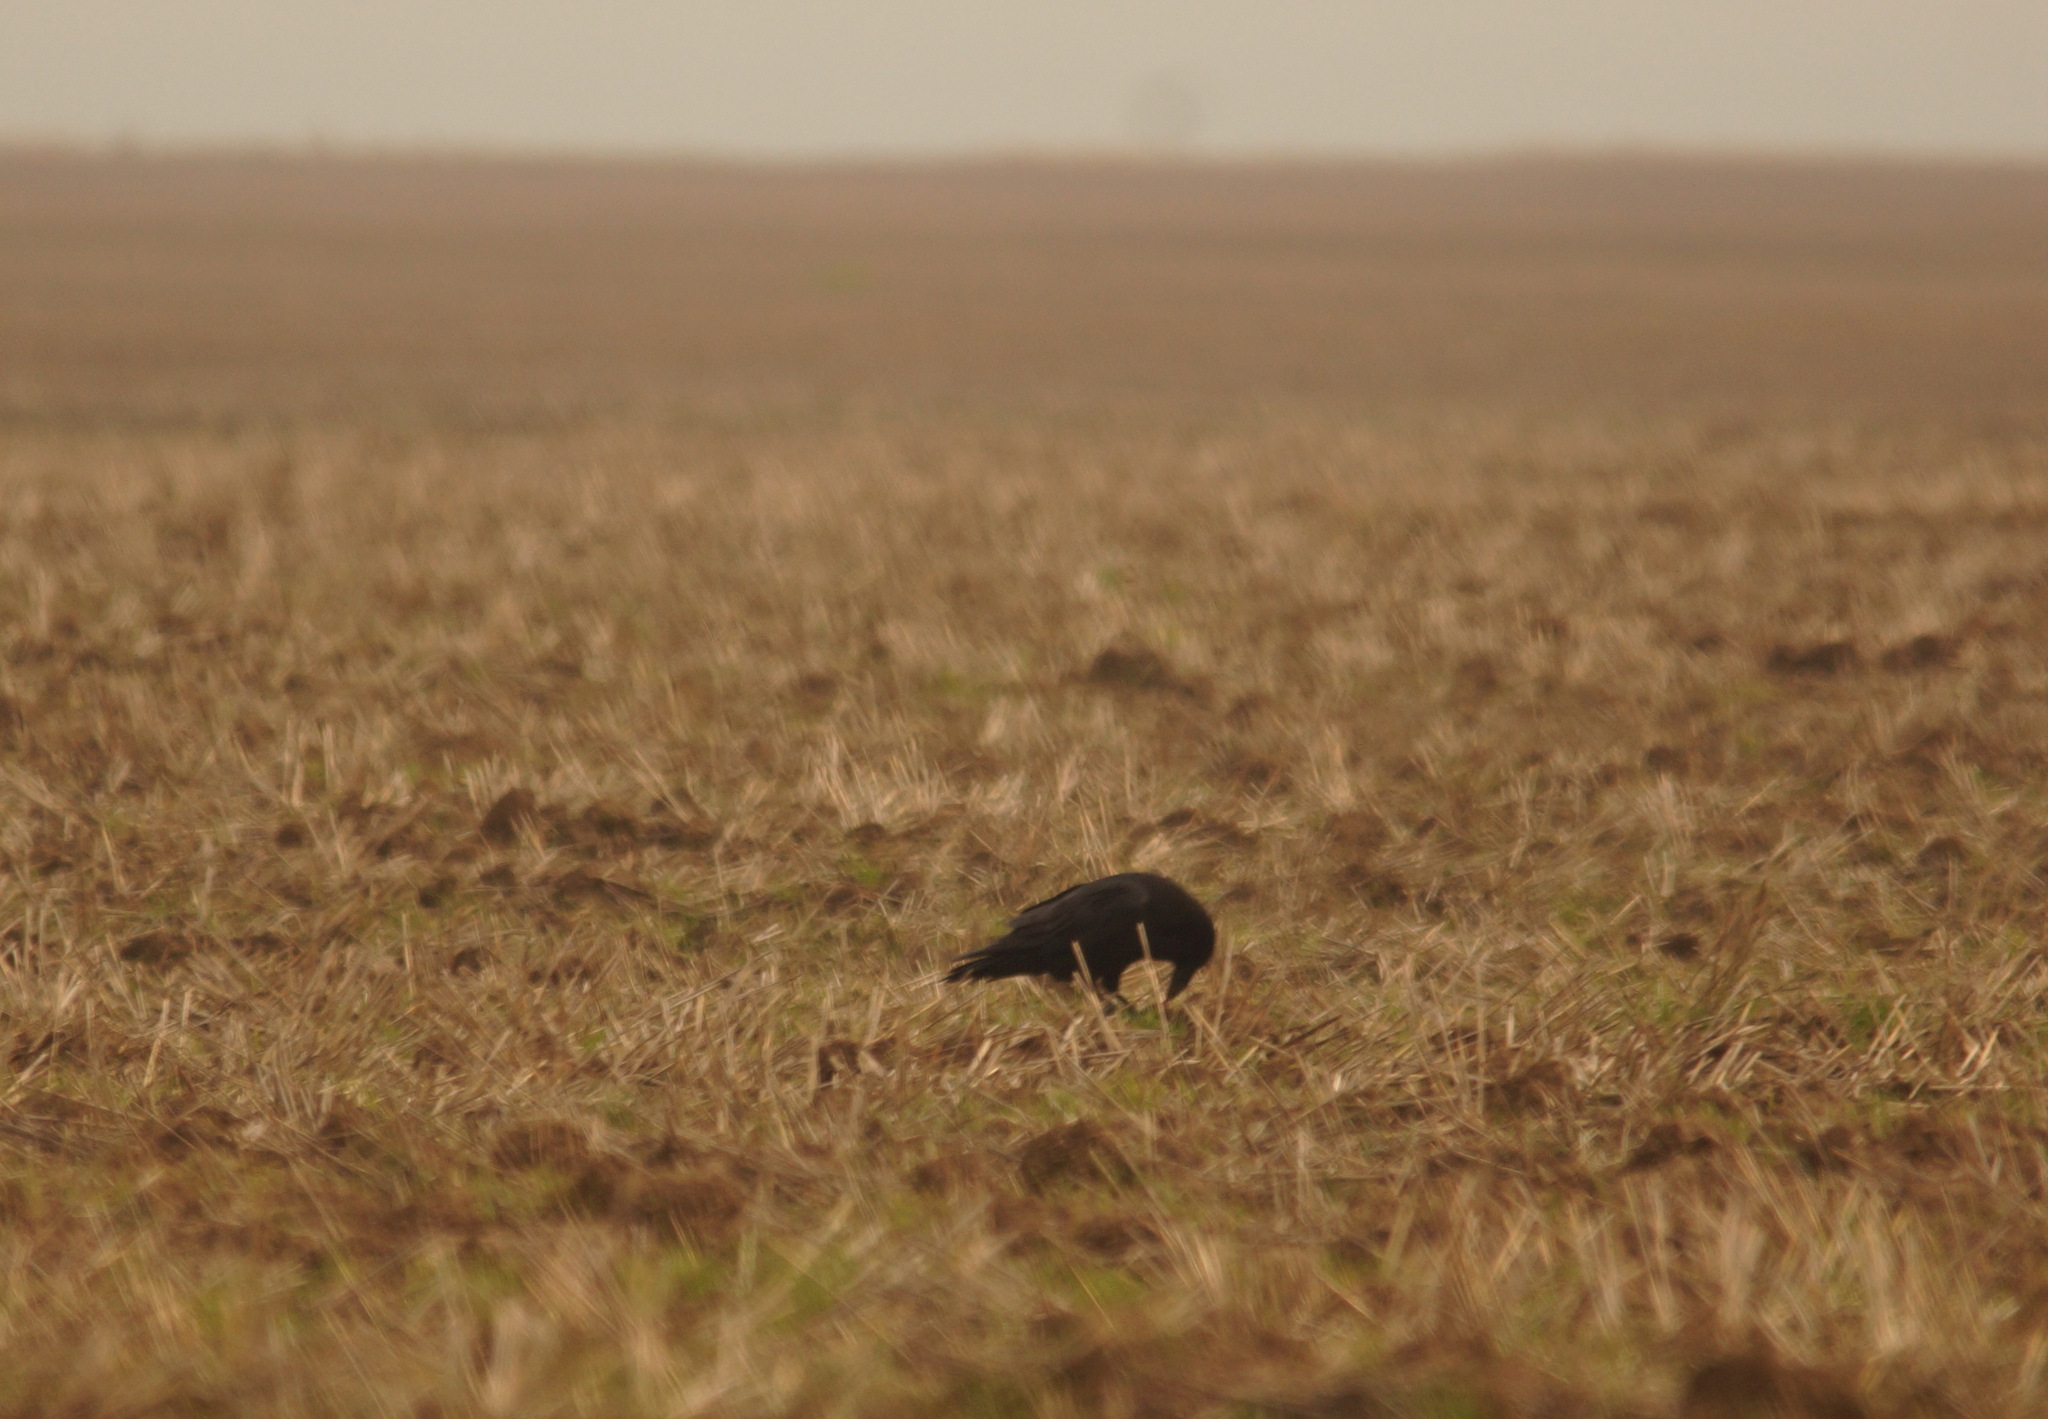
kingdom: Animalia
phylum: Chordata
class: Aves
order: Passeriformes
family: Corvidae
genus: Corvus
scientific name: Corvus corax
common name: Common raven
